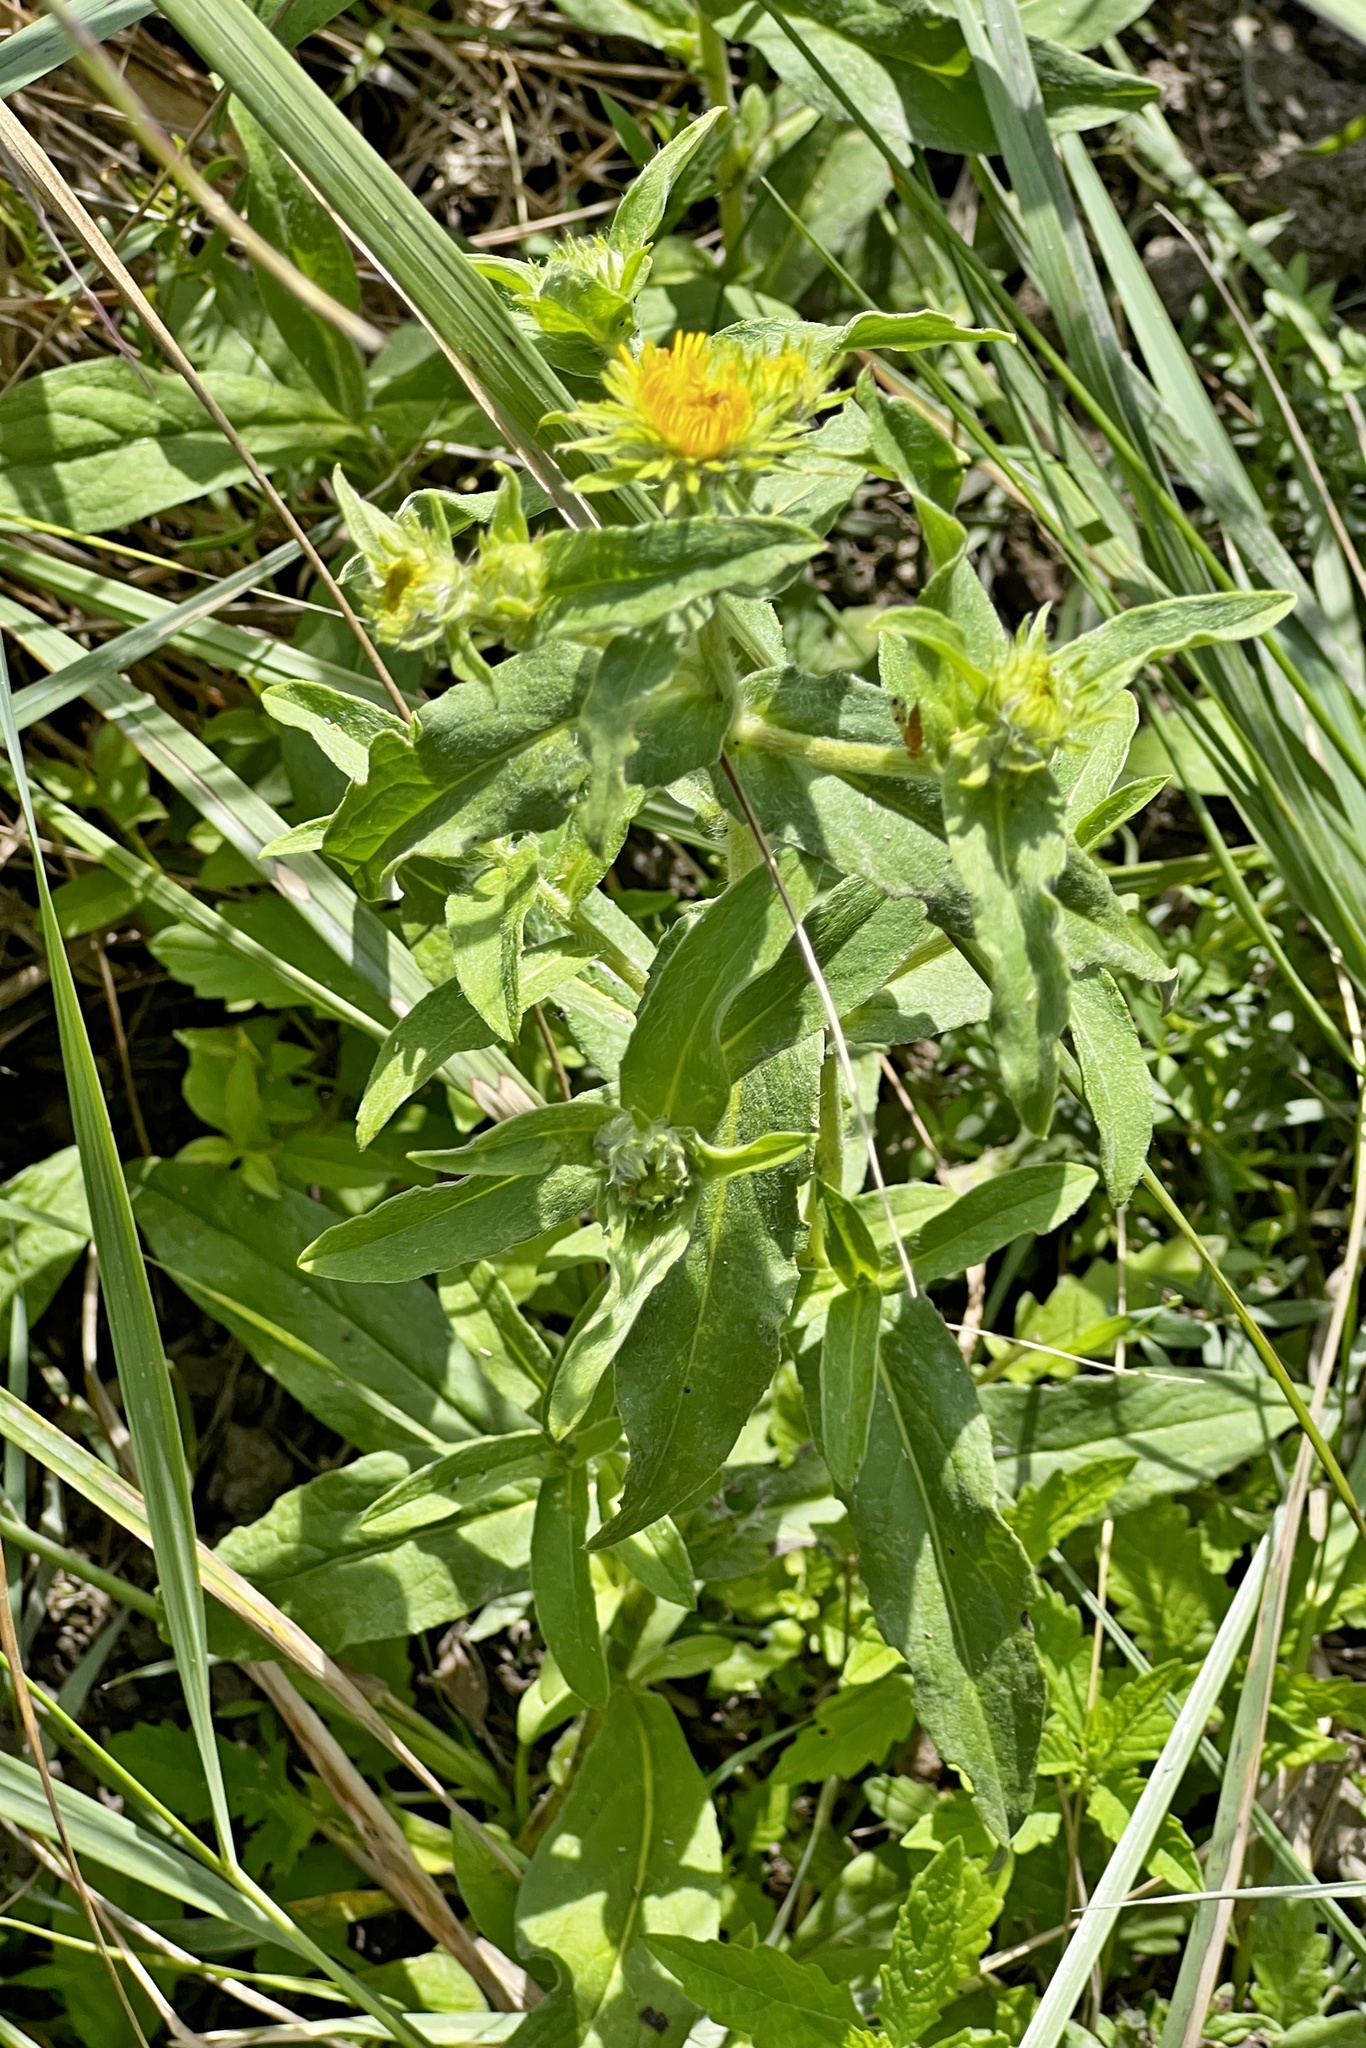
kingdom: Plantae
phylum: Tracheophyta
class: Magnoliopsida
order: Asterales
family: Asteraceae
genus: Pentanema
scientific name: Pentanema britannicum
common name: British elecampane
